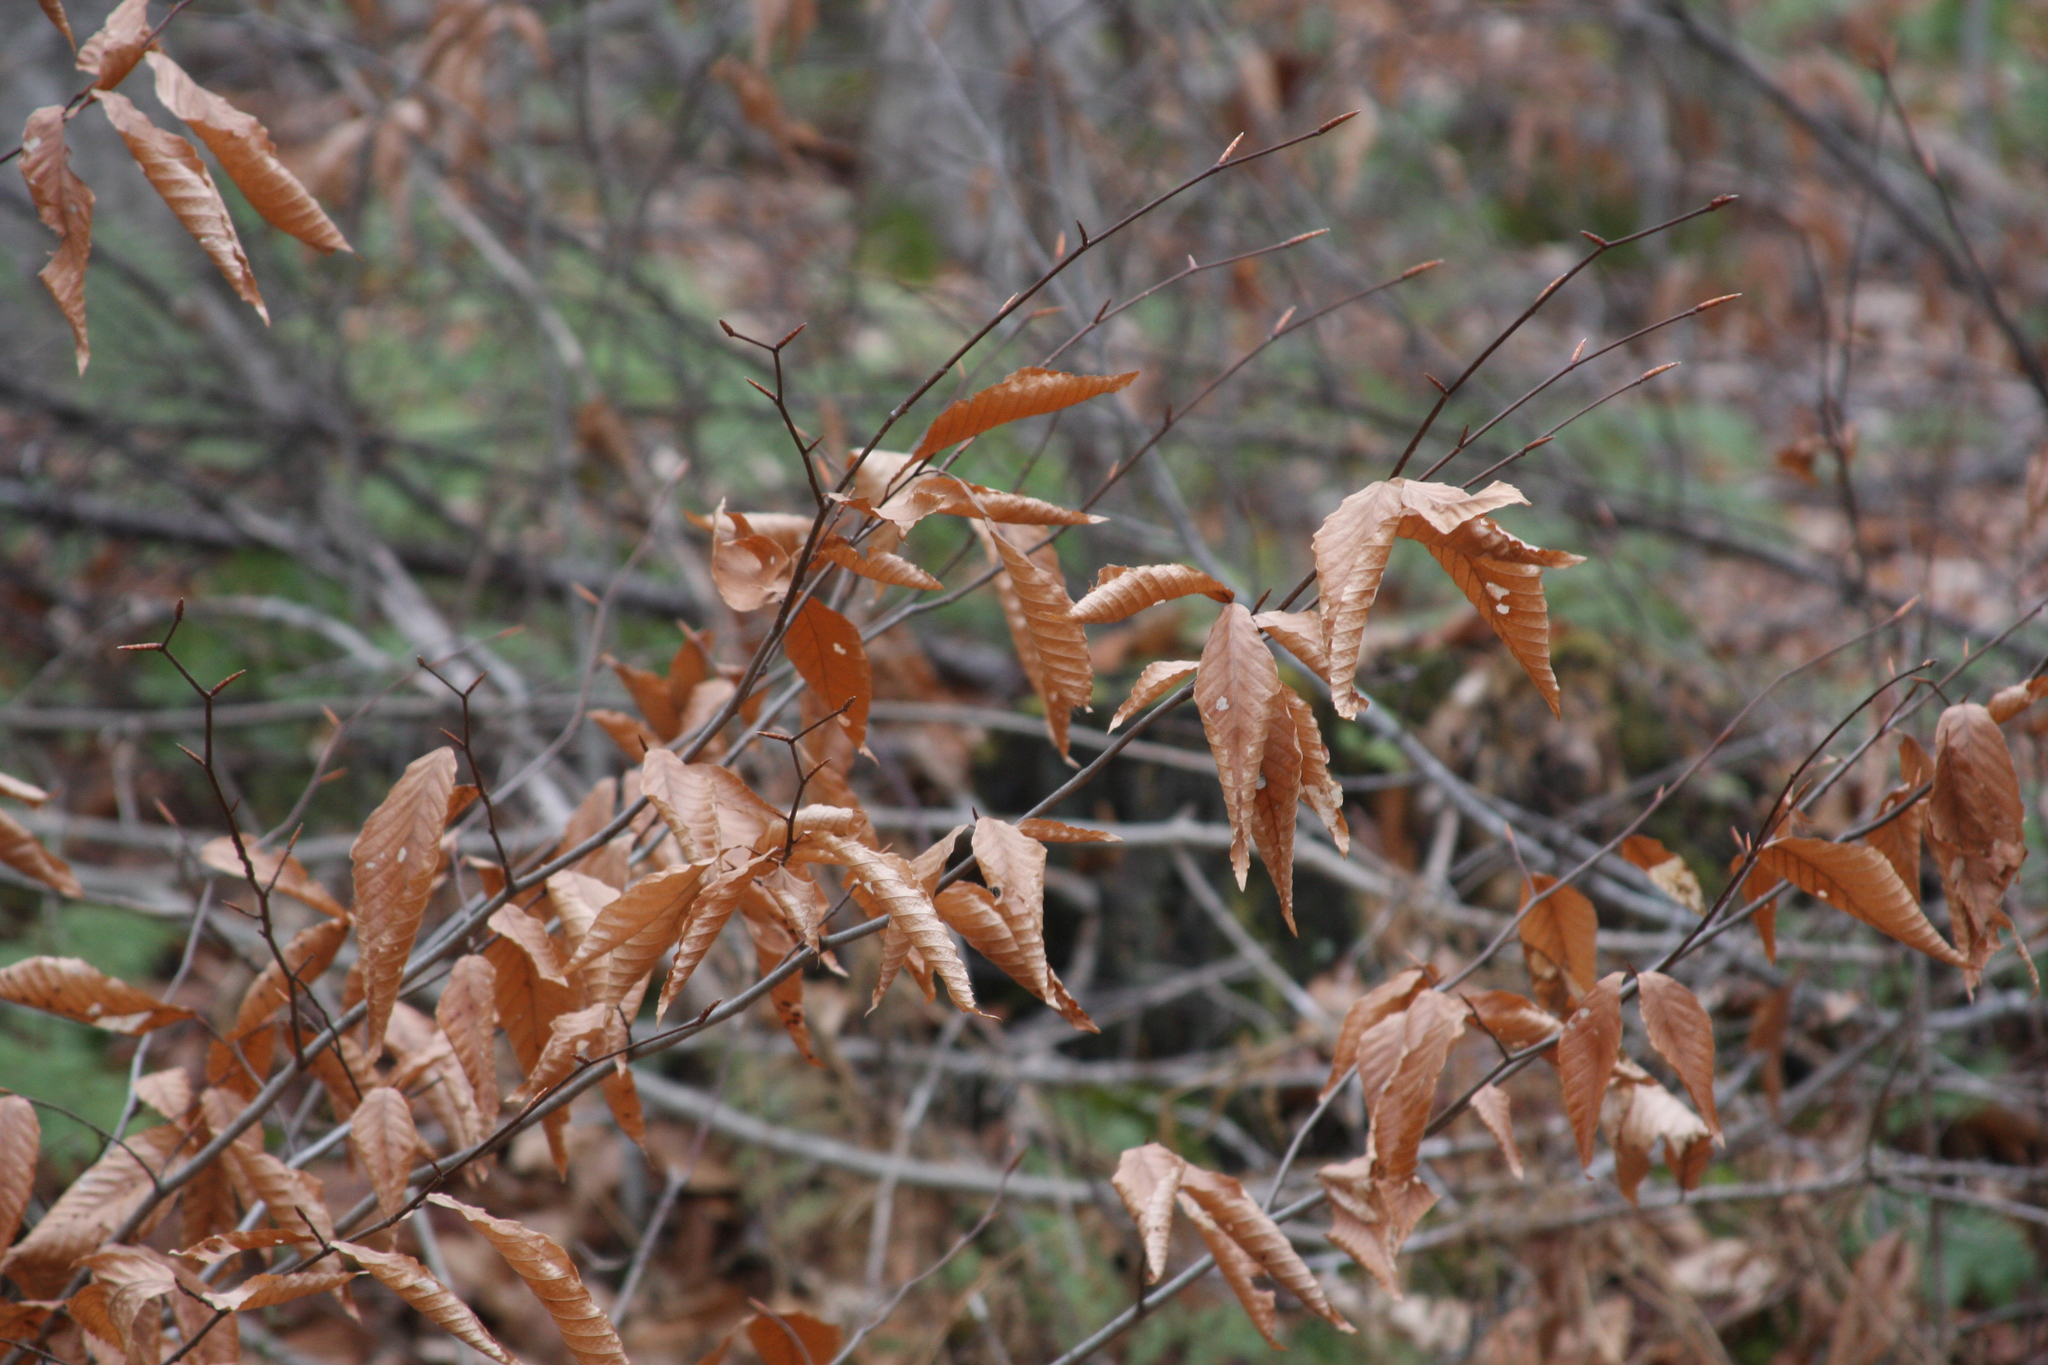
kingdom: Plantae
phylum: Tracheophyta
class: Magnoliopsida
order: Fagales
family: Fagaceae
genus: Fagus
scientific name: Fagus grandifolia
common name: American beech
